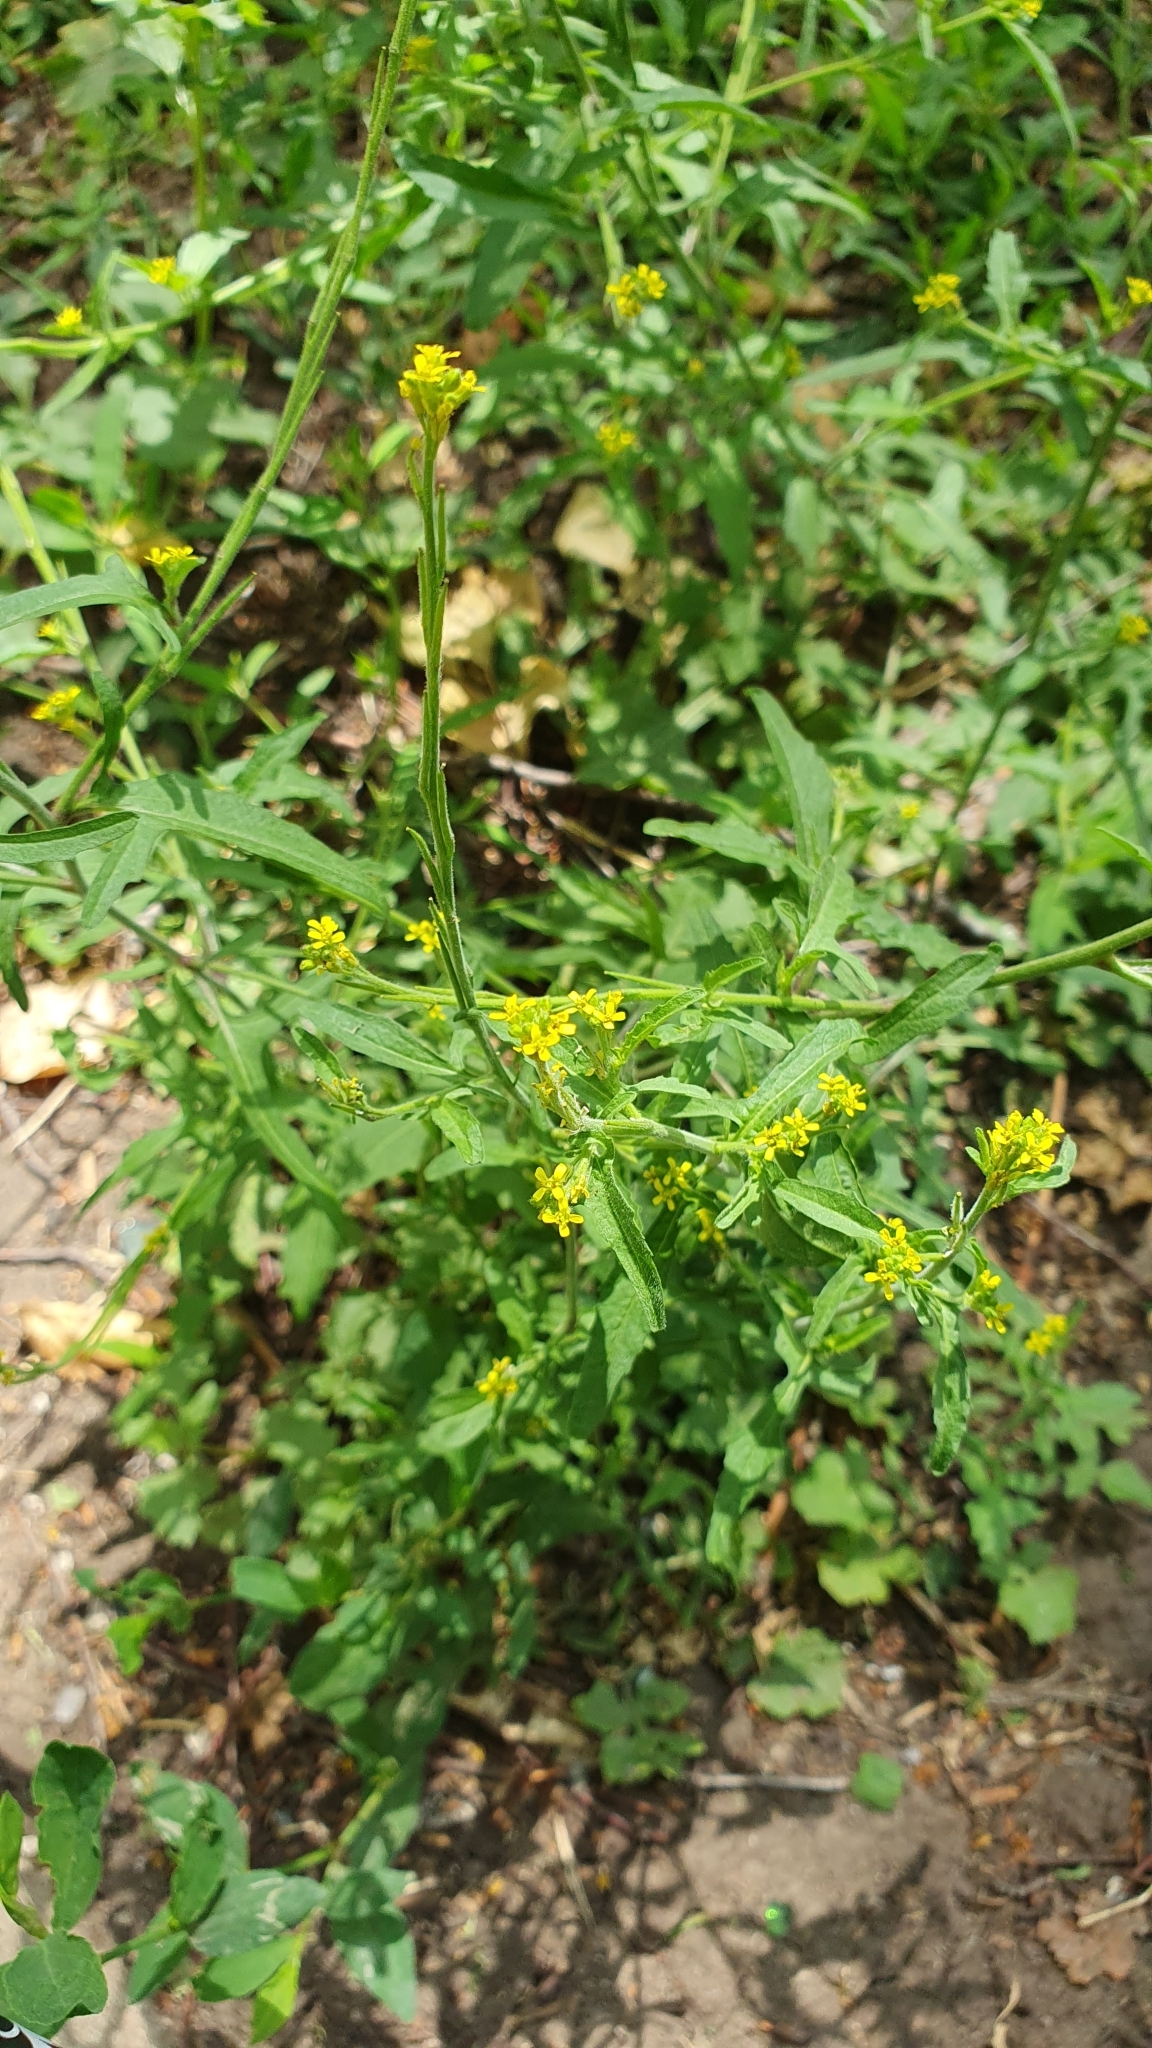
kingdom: Plantae
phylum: Tracheophyta
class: Magnoliopsida
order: Brassicales
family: Brassicaceae
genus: Sisymbrium
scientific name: Sisymbrium officinale
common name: Hedge mustard
